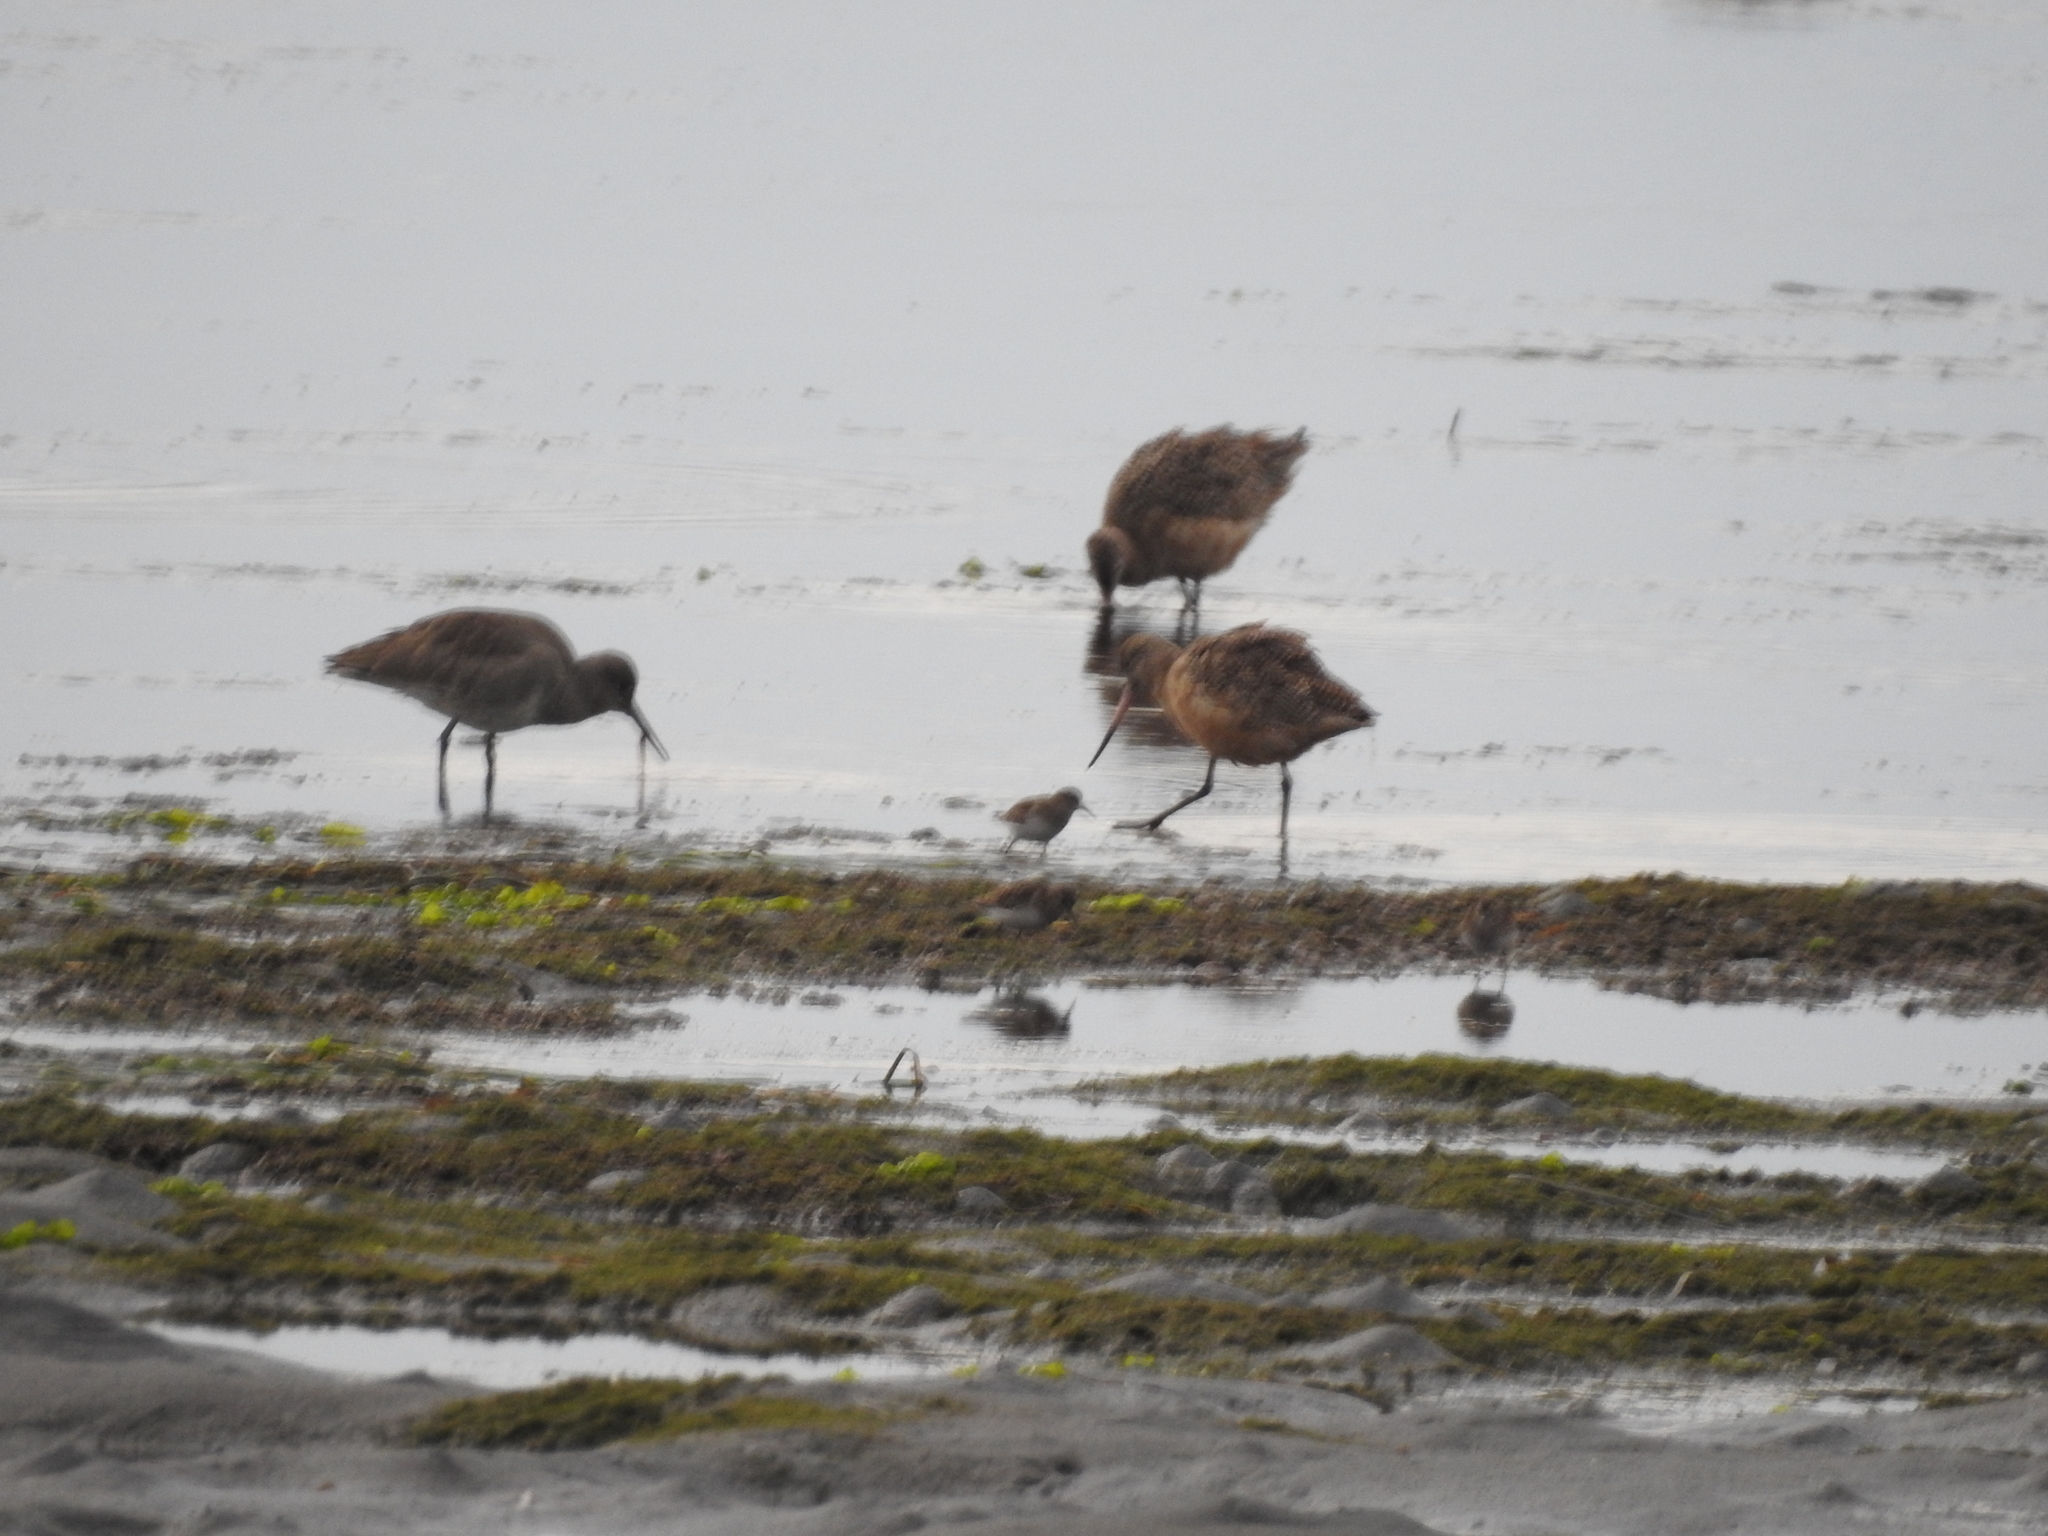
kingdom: Animalia
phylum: Chordata
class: Aves
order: Charadriiformes
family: Scolopacidae
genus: Limosa
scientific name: Limosa fedoa
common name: Marbled godwit
